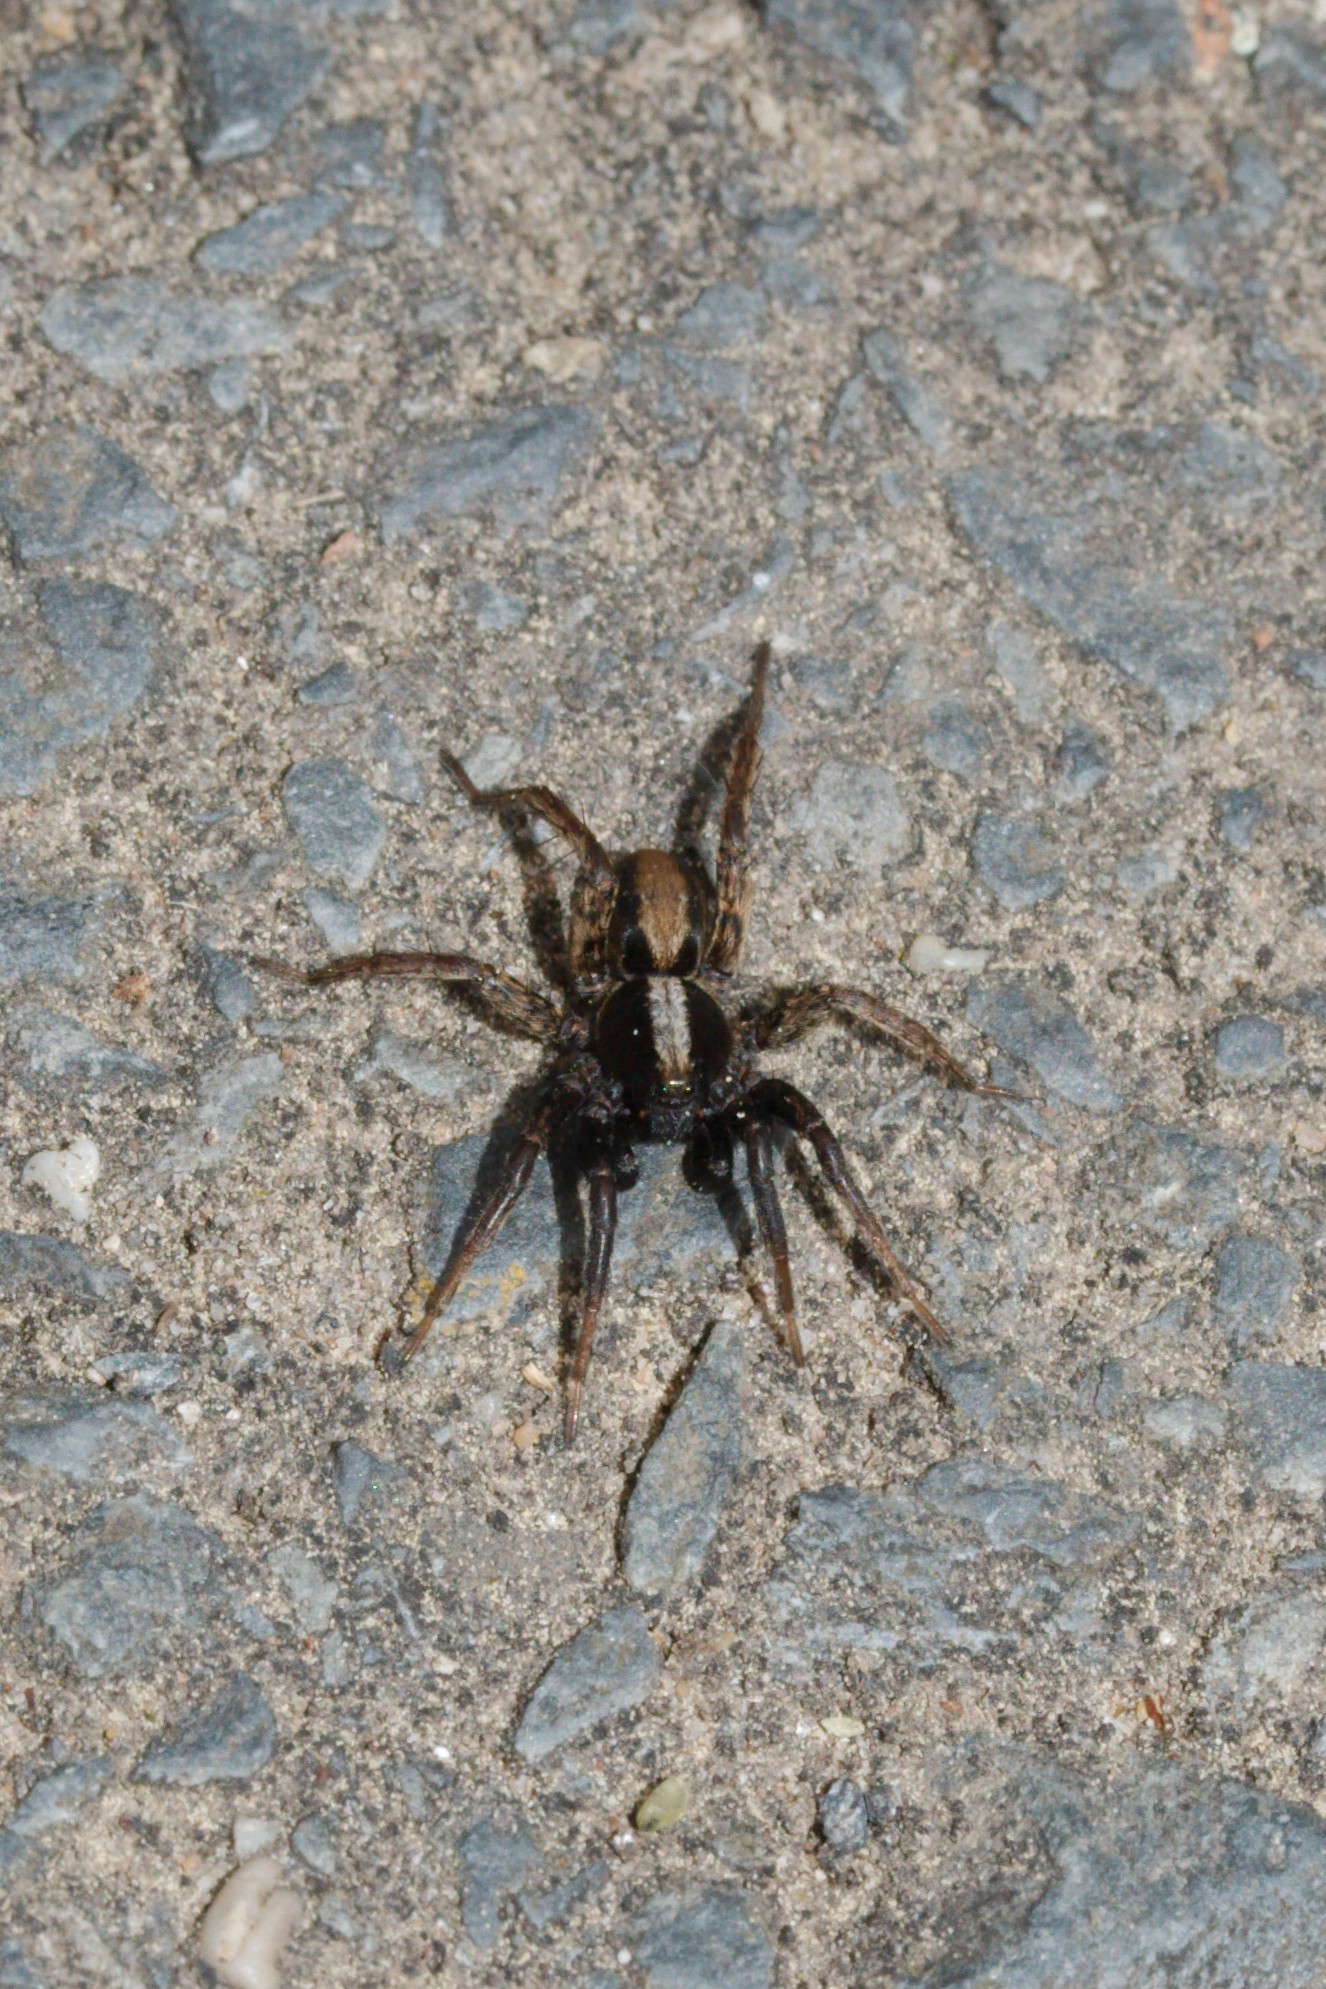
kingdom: Animalia
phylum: Arthropoda
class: Arachnida
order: Araneae
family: Lycosidae
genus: Alopecosa
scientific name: Alopecosa
